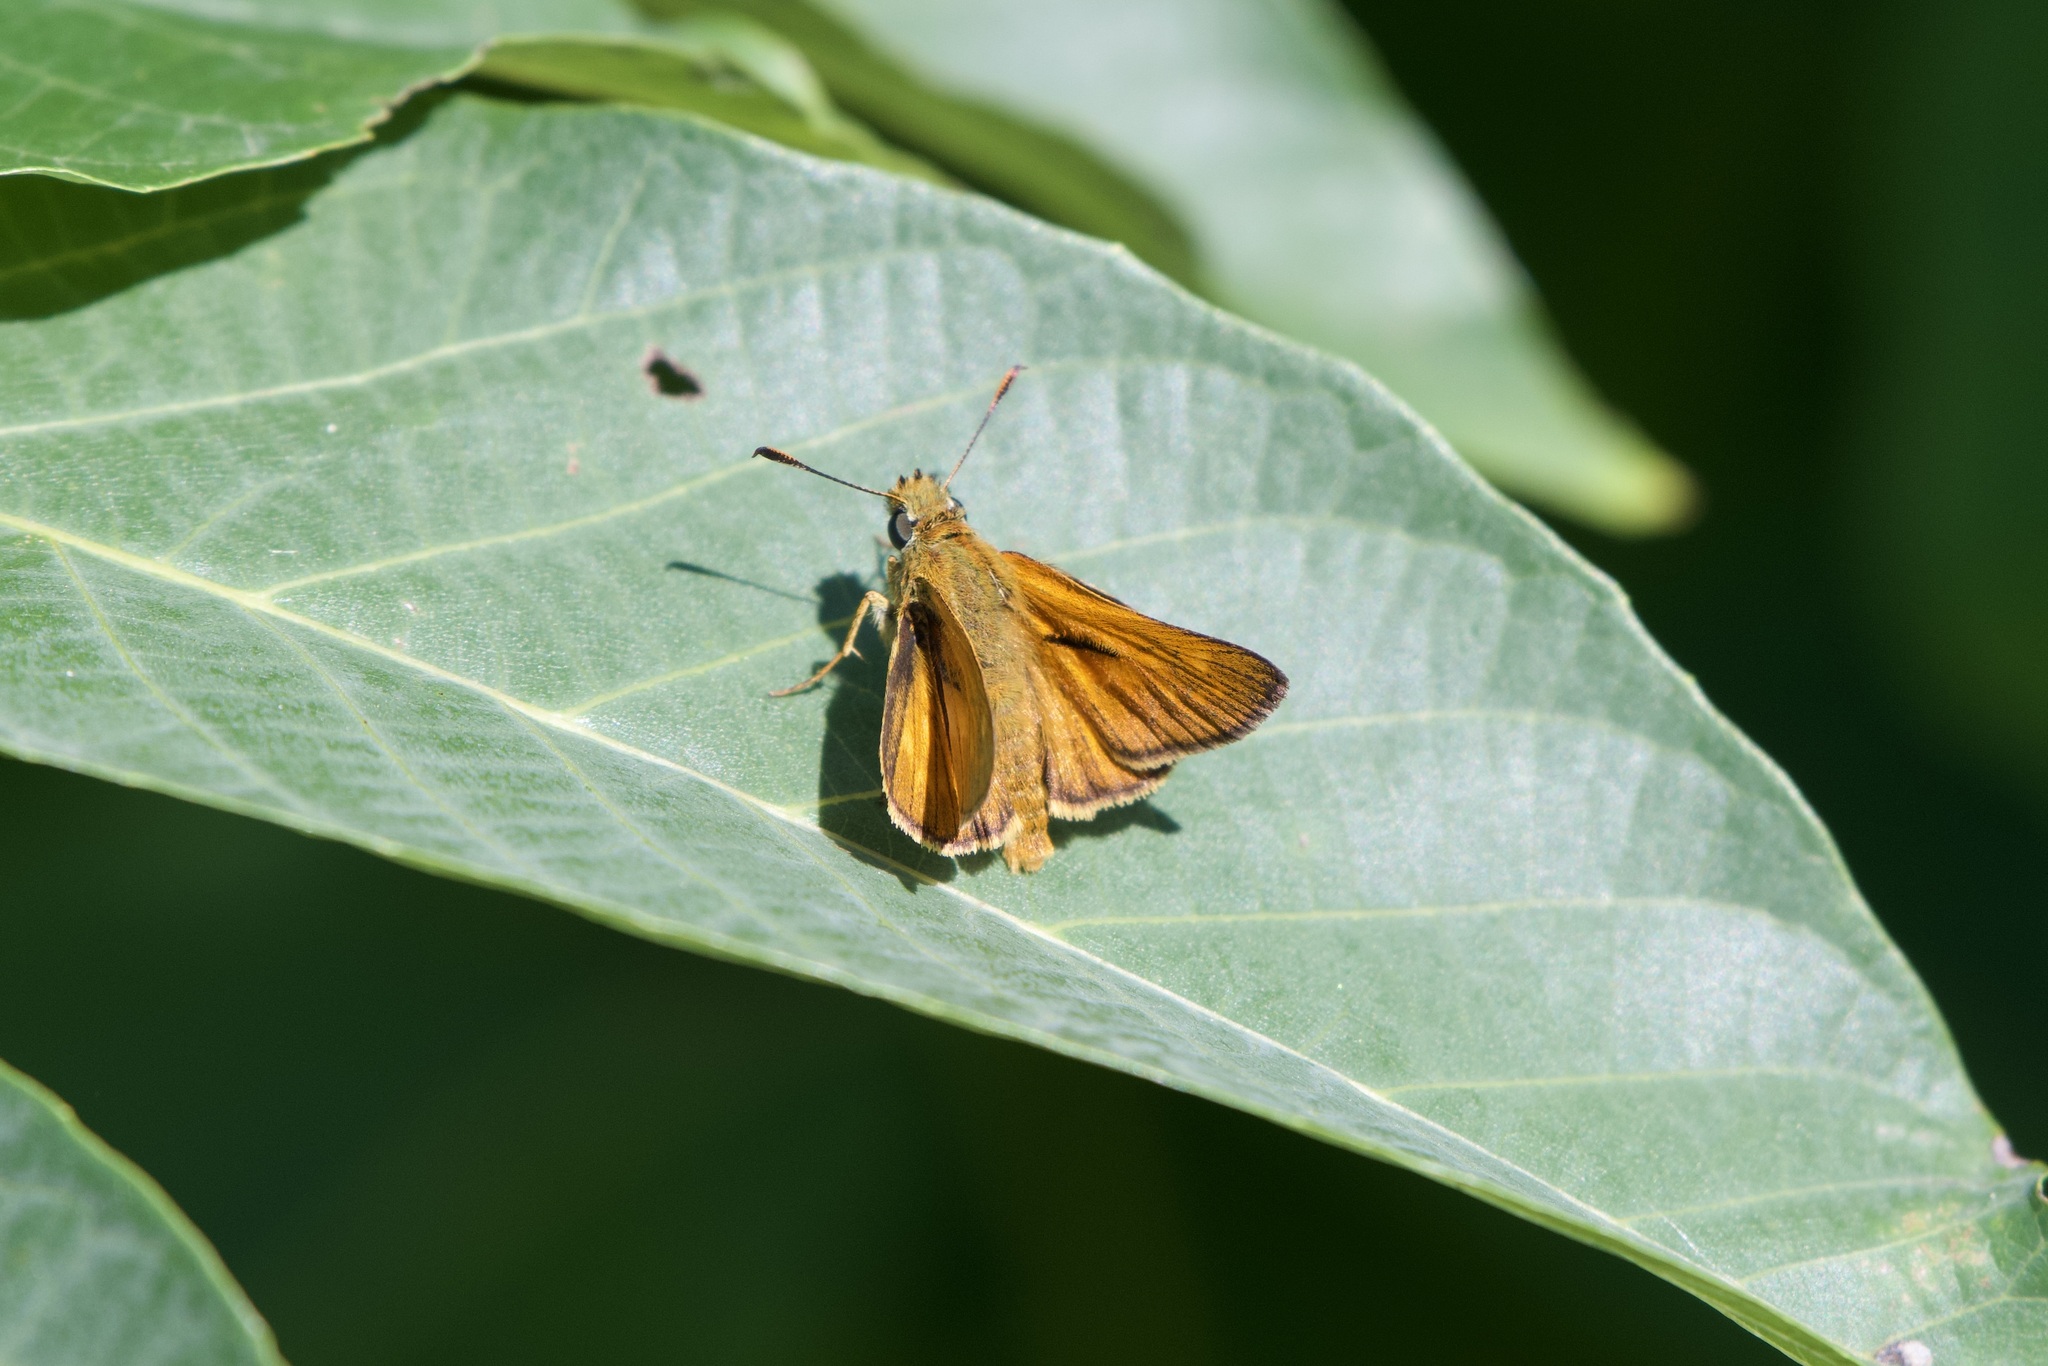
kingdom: Animalia
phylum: Arthropoda
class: Insecta
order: Lepidoptera
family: Hesperiidae
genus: Ochlodes
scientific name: Ochlodes venata
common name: Large skipper
